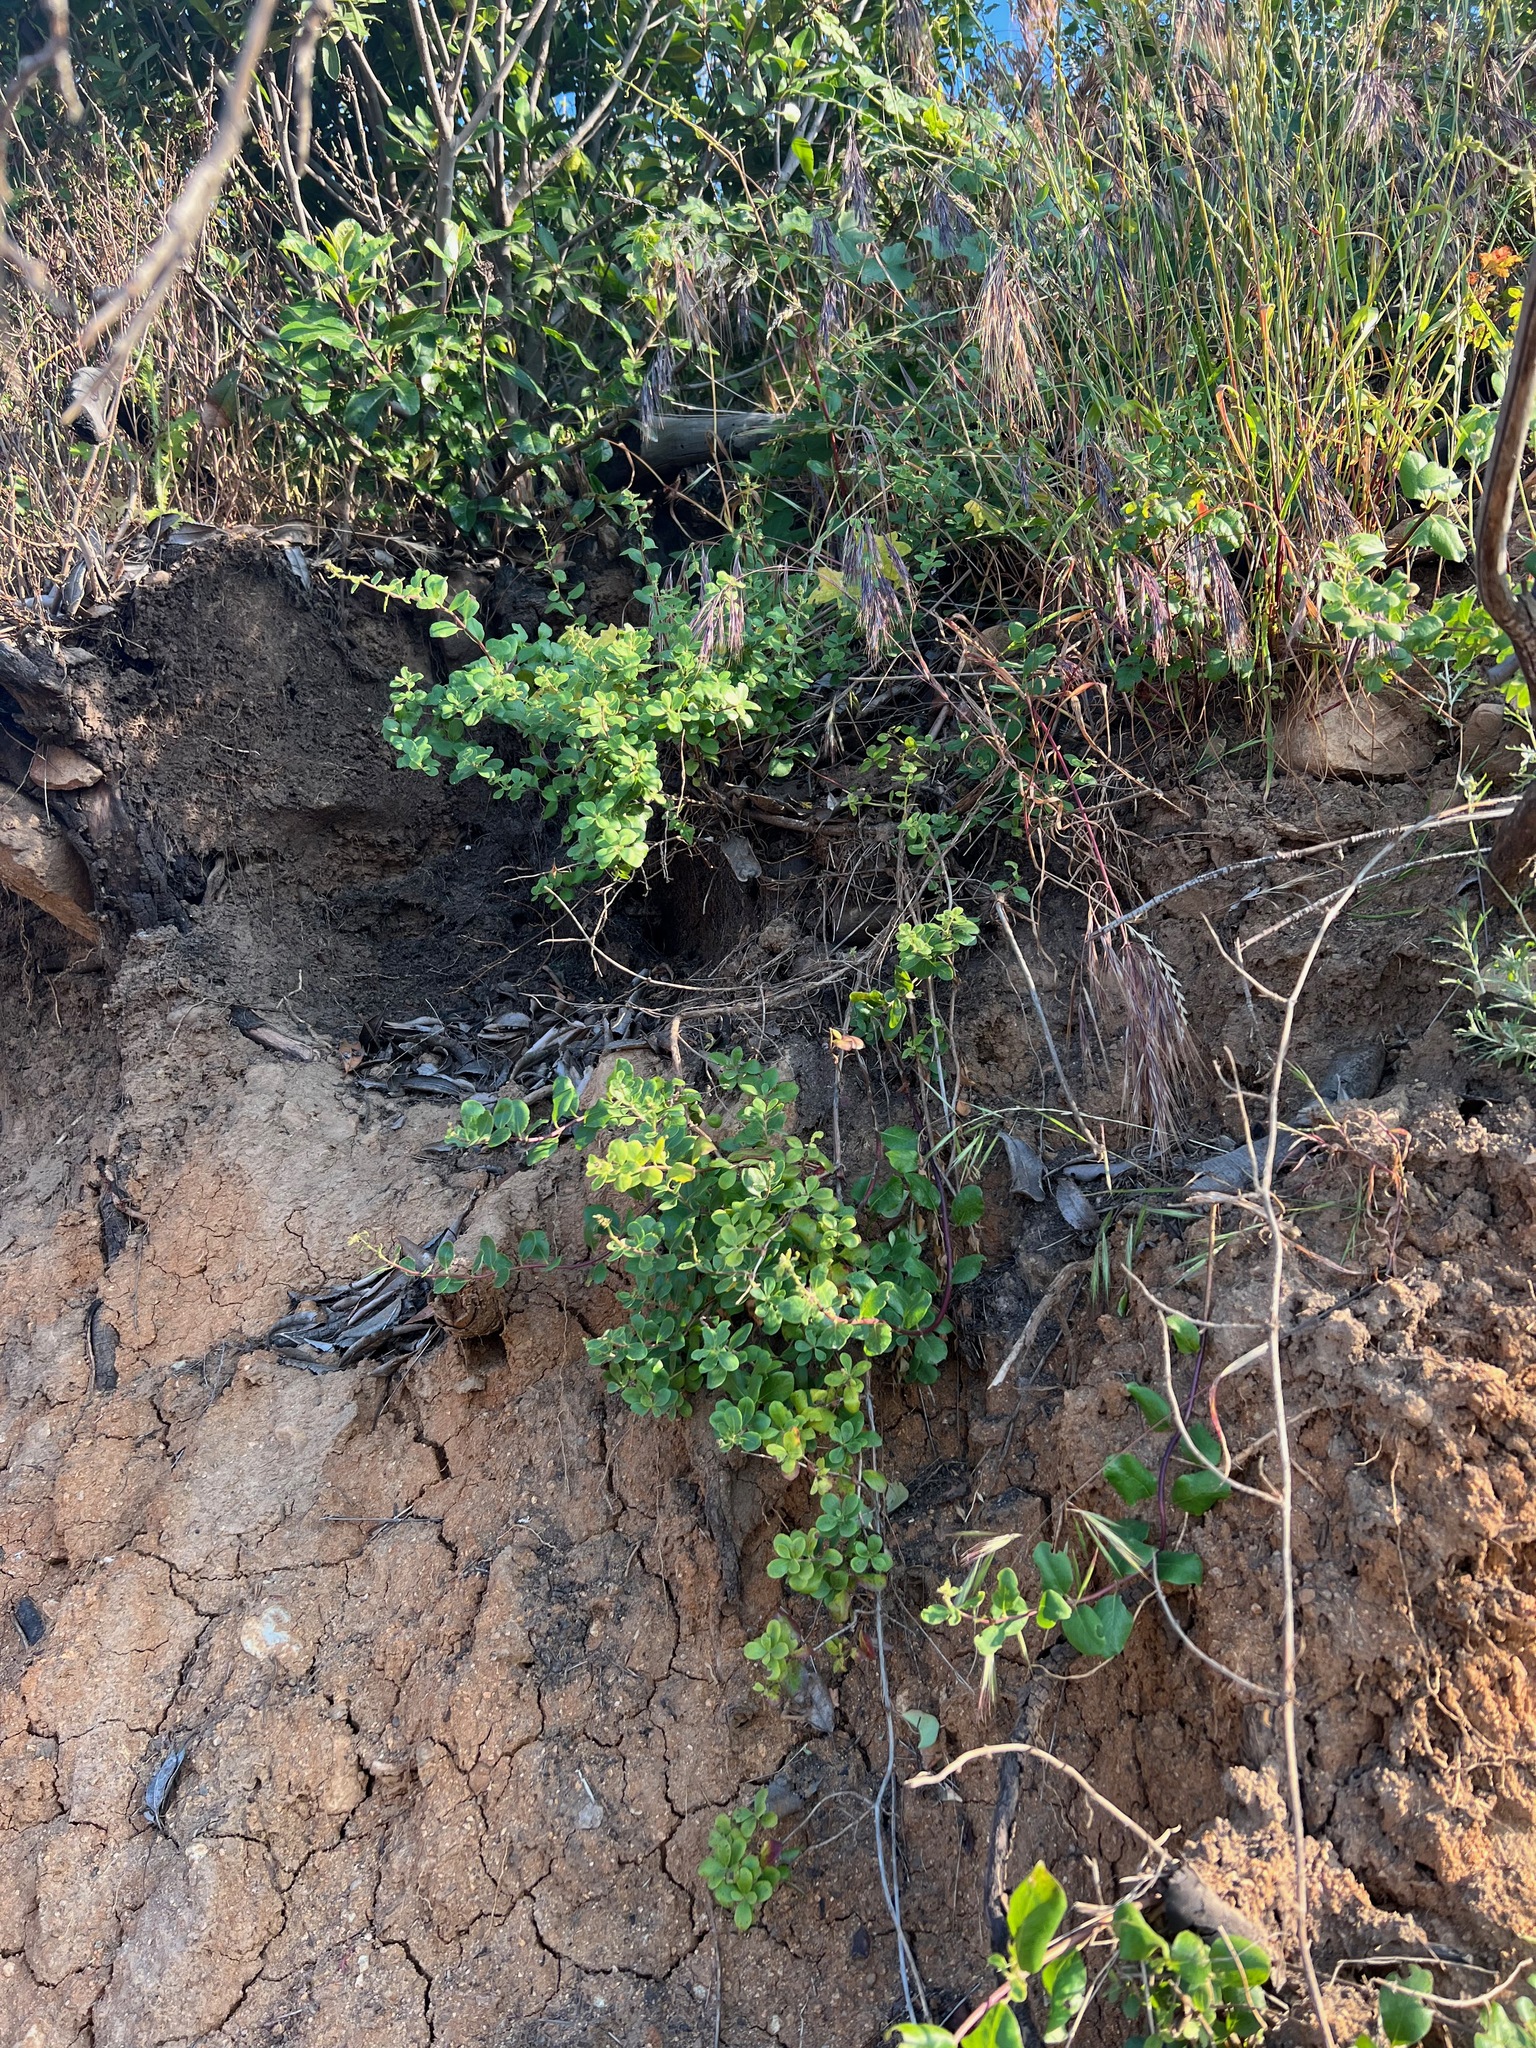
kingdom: Plantae
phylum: Tracheophyta
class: Magnoliopsida
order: Dipsacales
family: Caprifoliaceae
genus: Lonicera
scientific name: Lonicera subspicata
